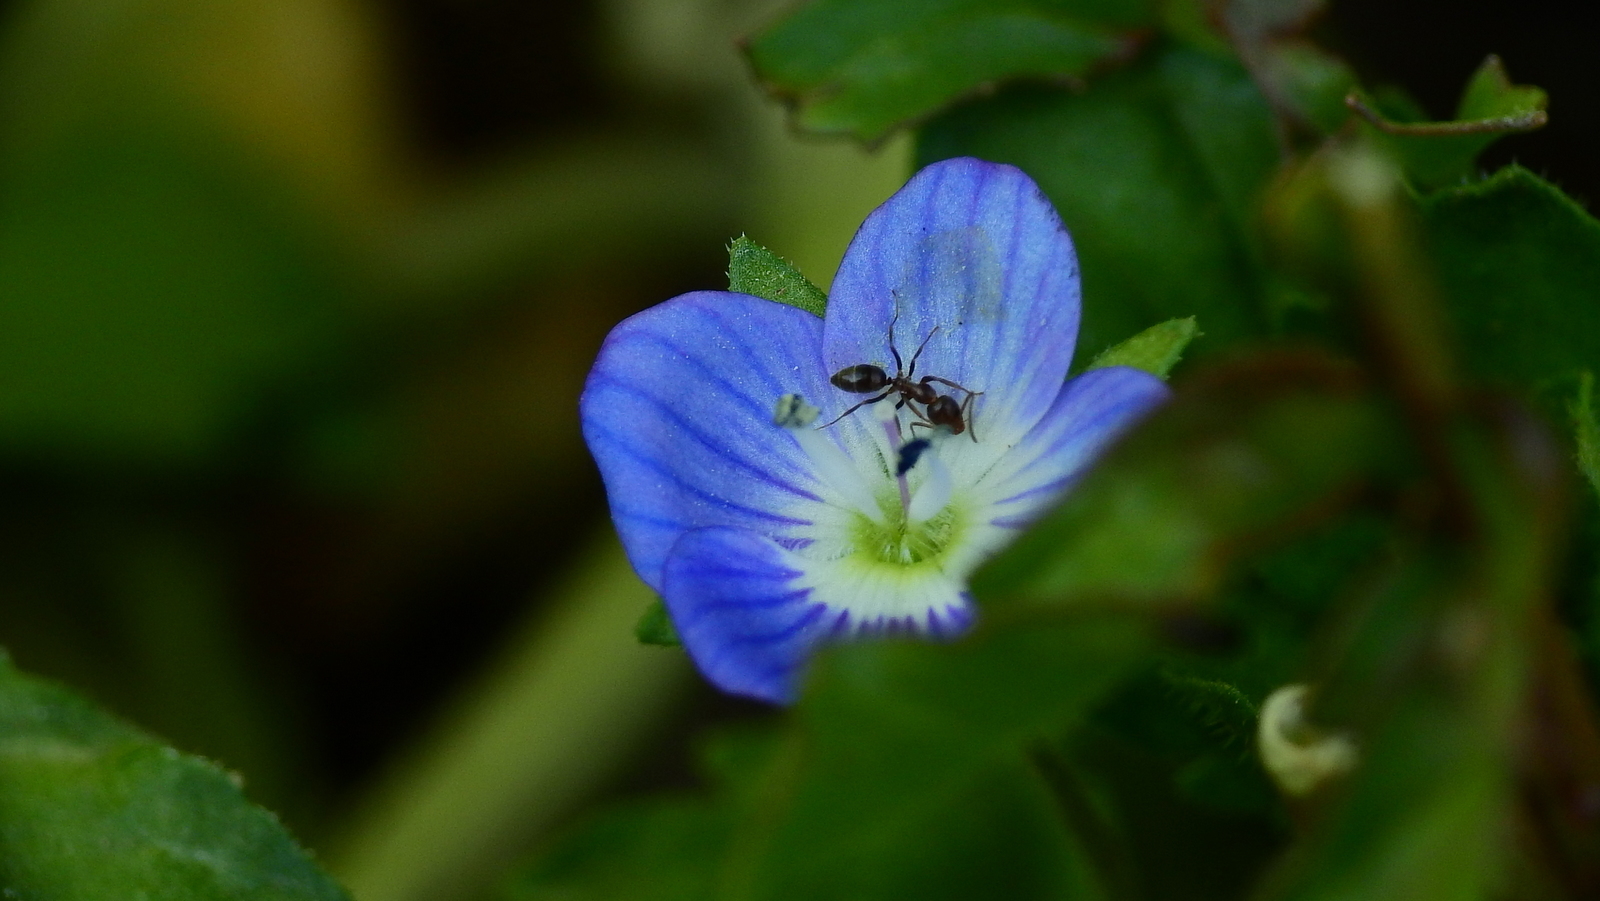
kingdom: Plantae
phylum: Tracheophyta
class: Magnoliopsida
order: Lamiales
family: Plantaginaceae
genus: Veronica
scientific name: Veronica persica
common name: Common field-speedwell
